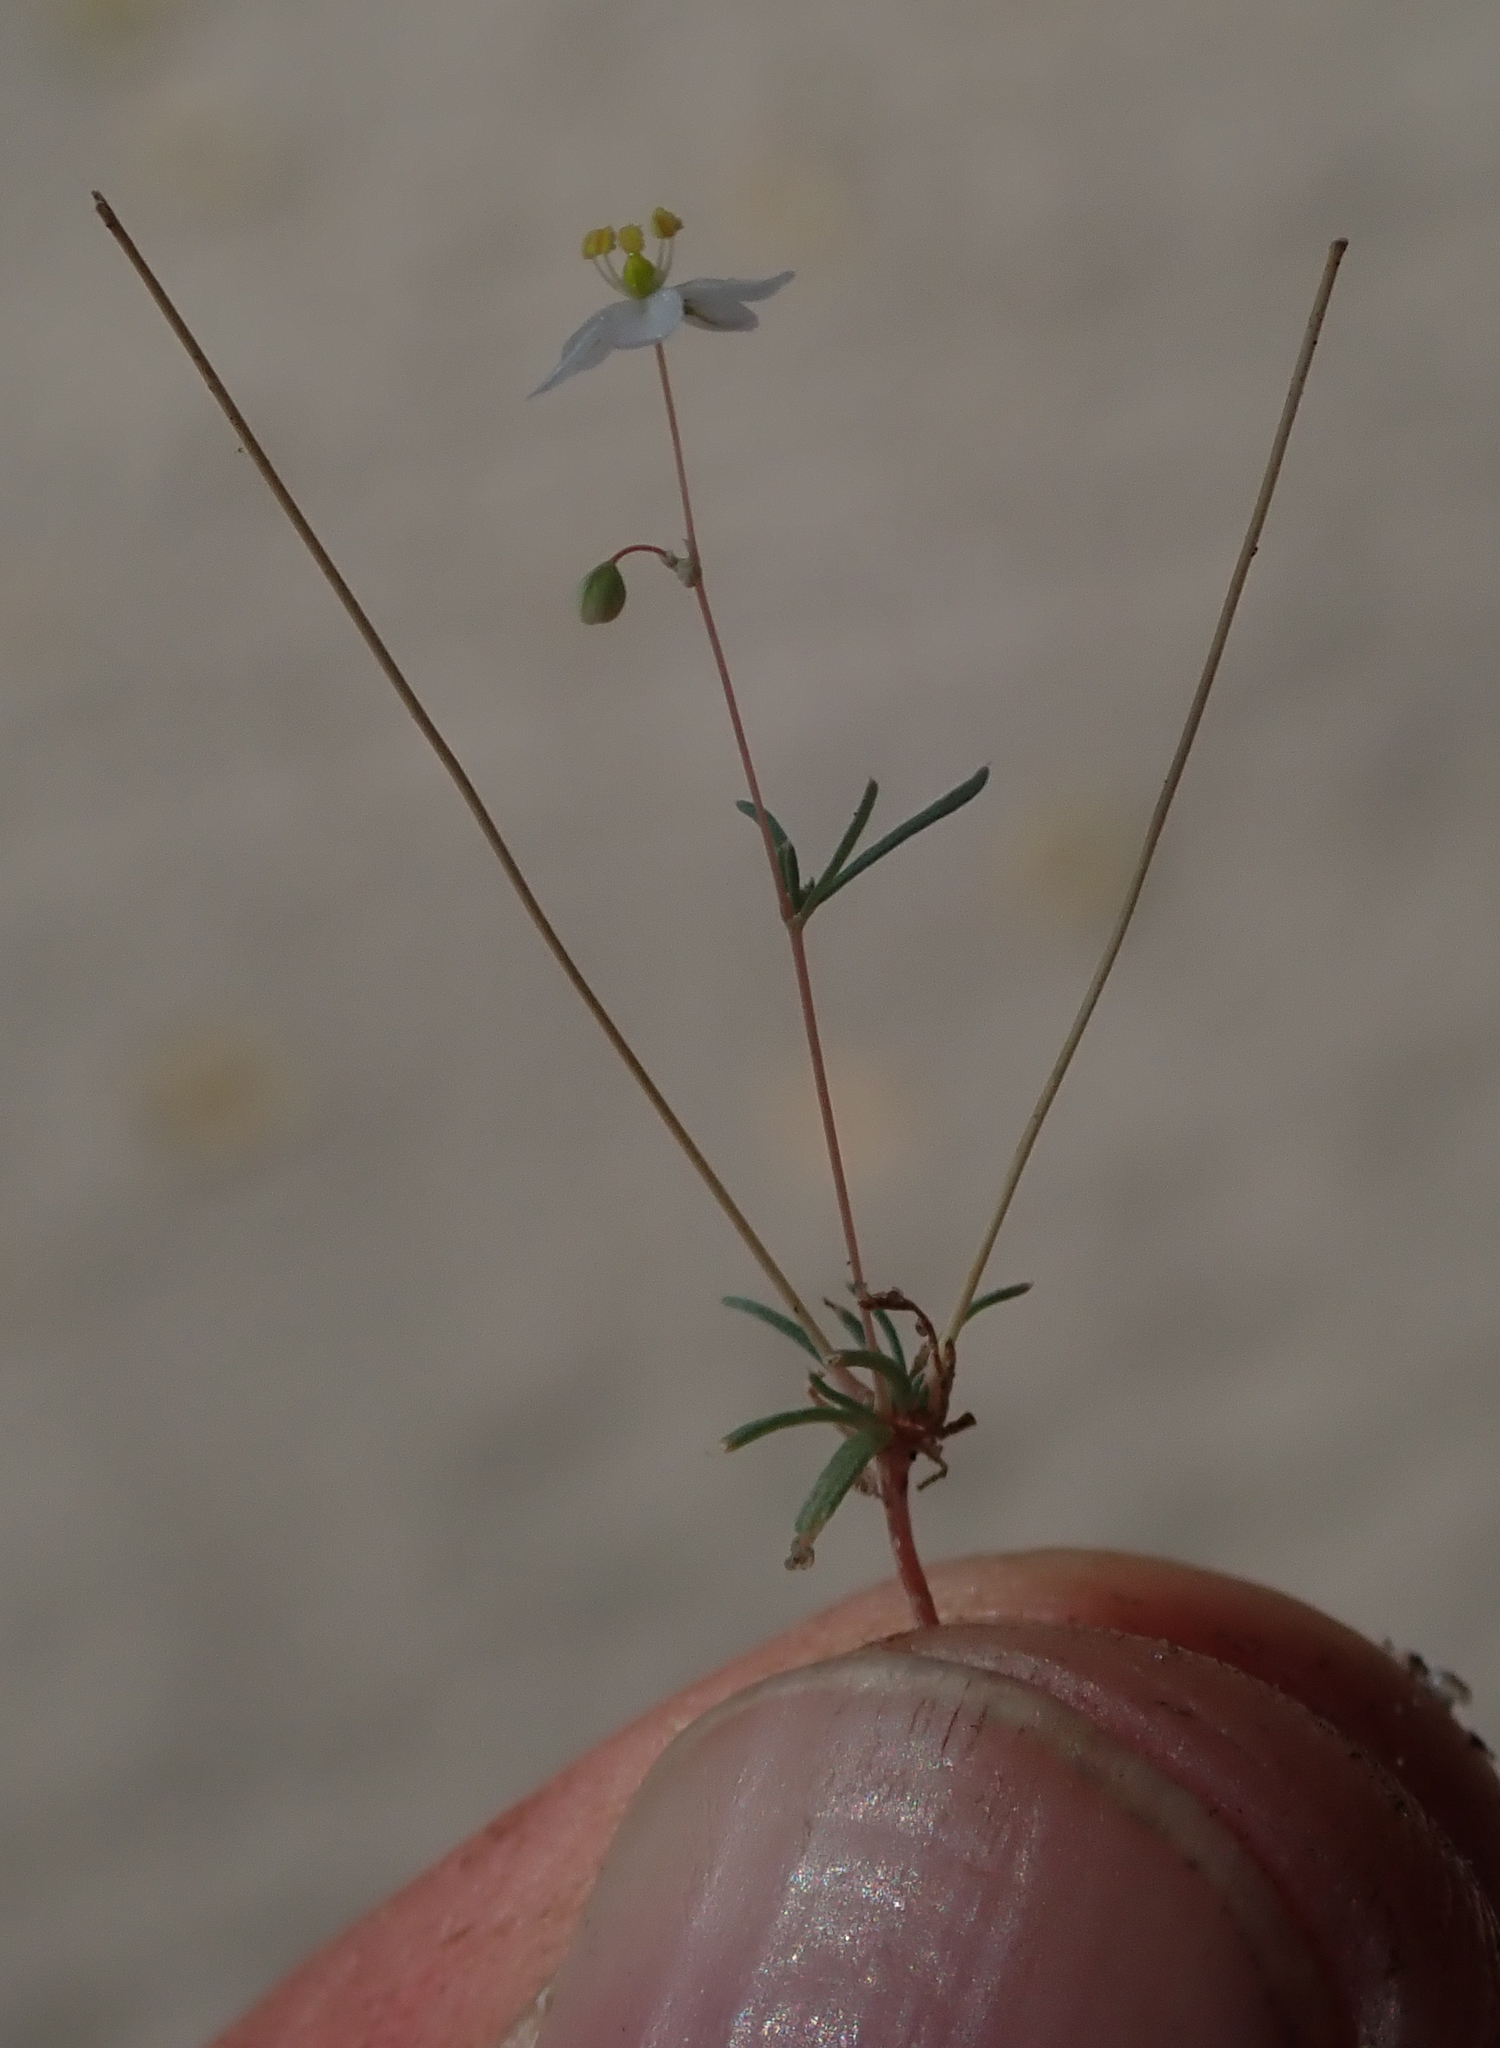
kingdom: Plantae
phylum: Tracheophyta
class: Magnoliopsida
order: Caryophyllales
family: Molluginaceae
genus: Hypertelis
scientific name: Hypertelis cerviana
